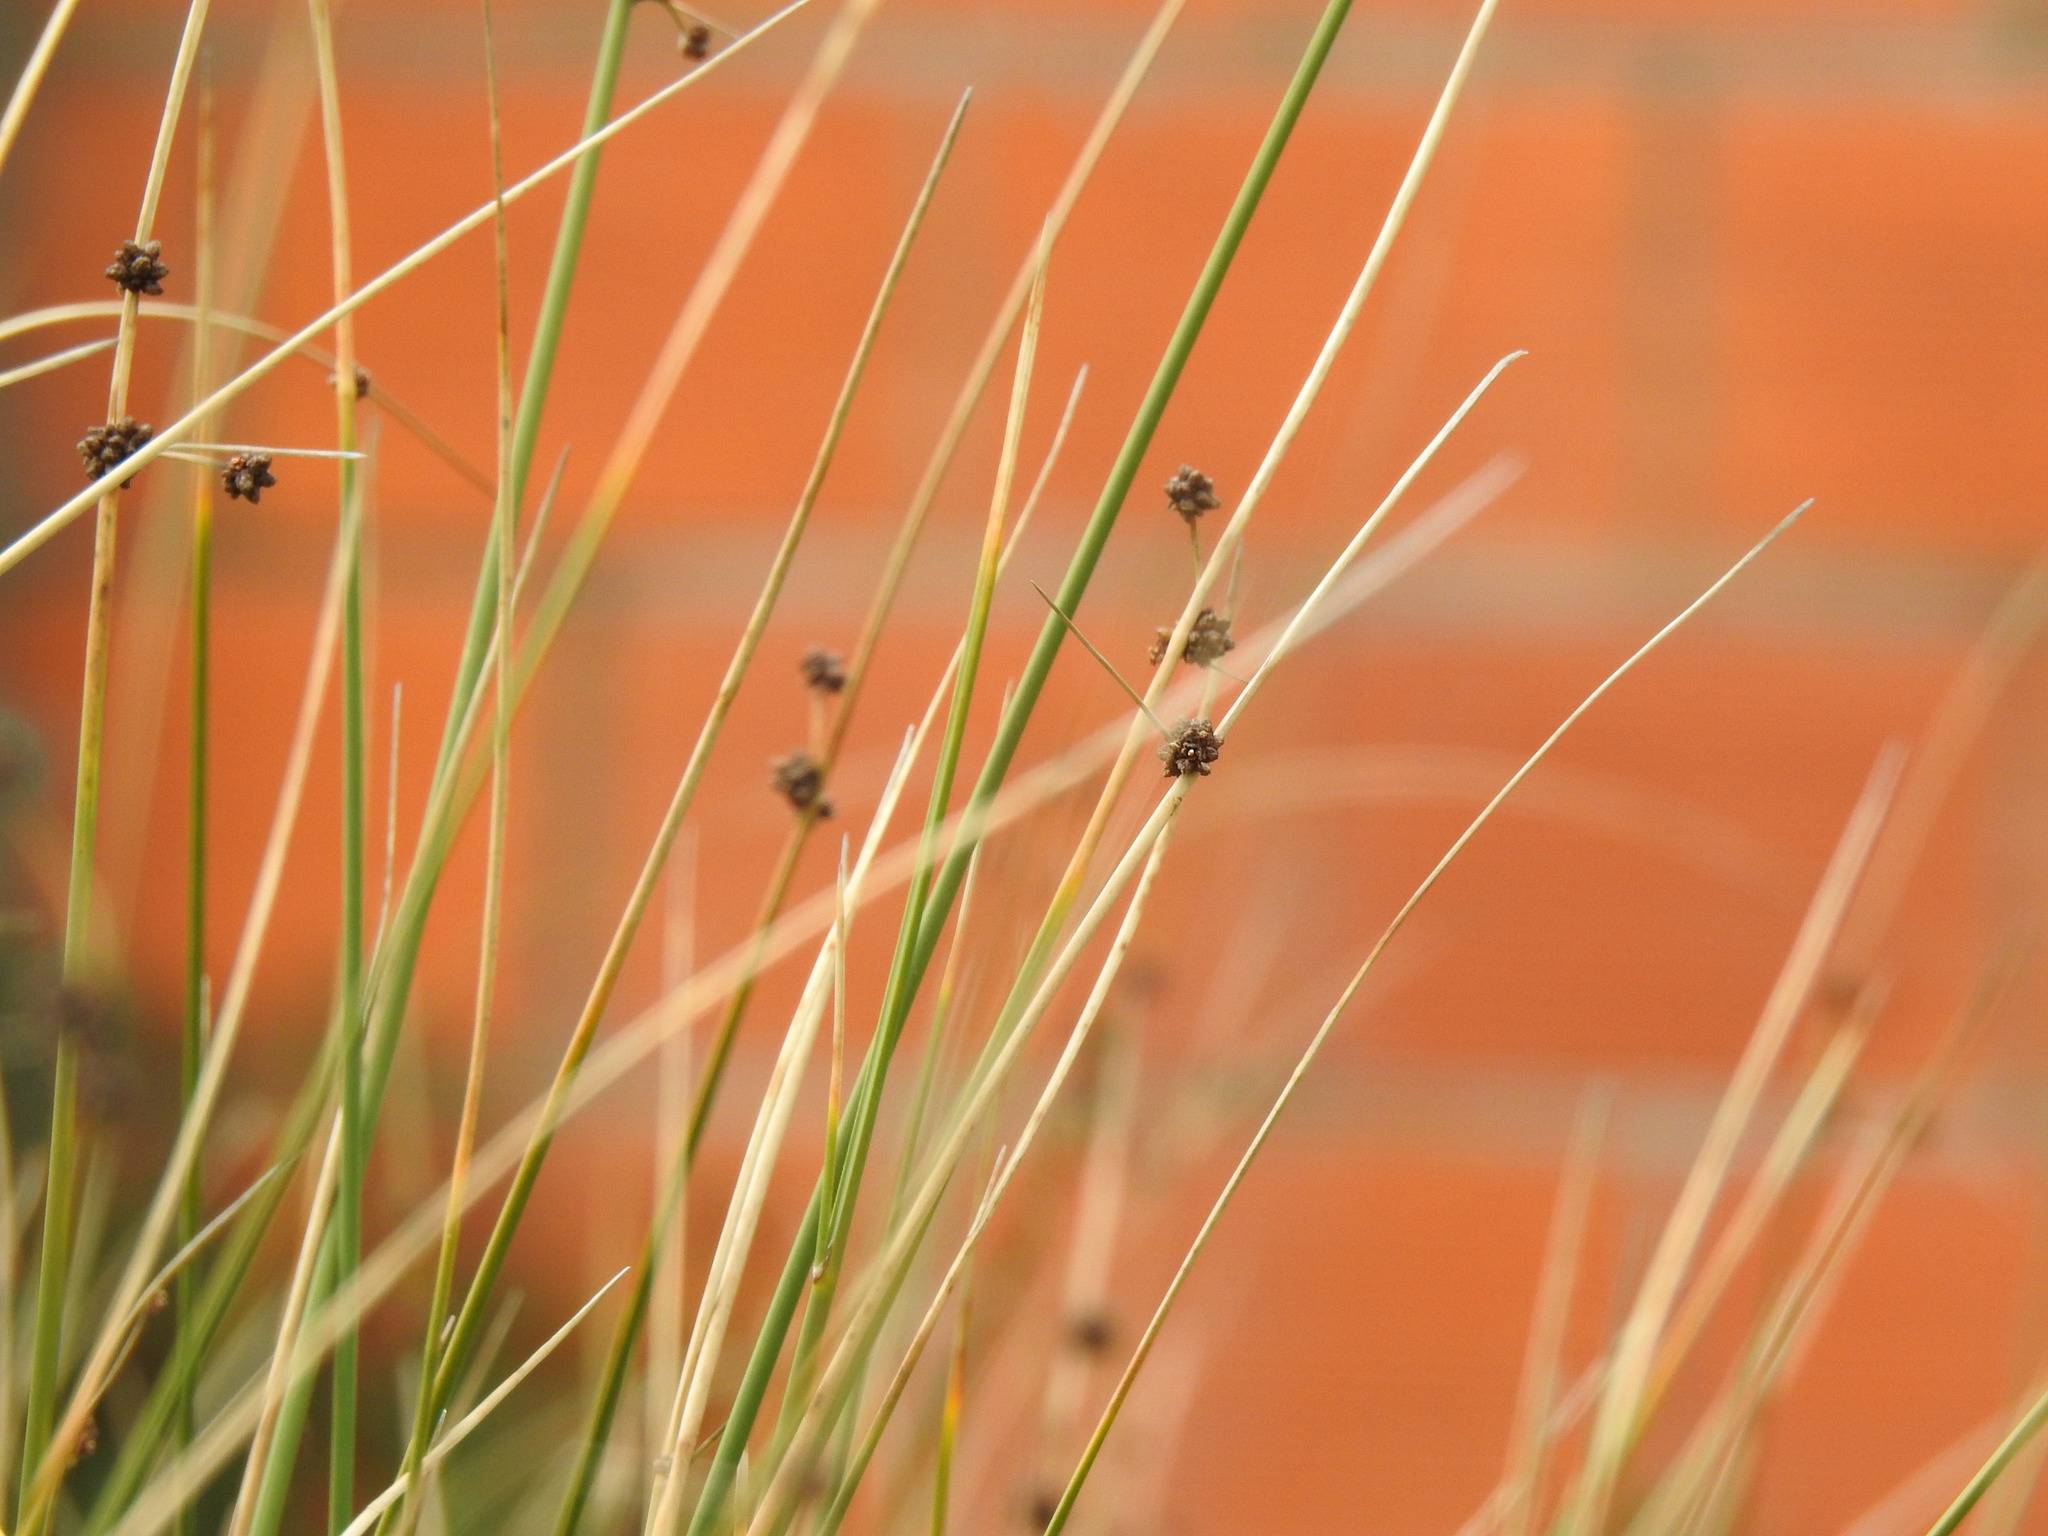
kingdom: Plantae
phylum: Tracheophyta
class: Liliopsida
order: Poales
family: Cyperaceae
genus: Scirpoides
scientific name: Scirpoides holoschoenus
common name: Round-headed club-rush
